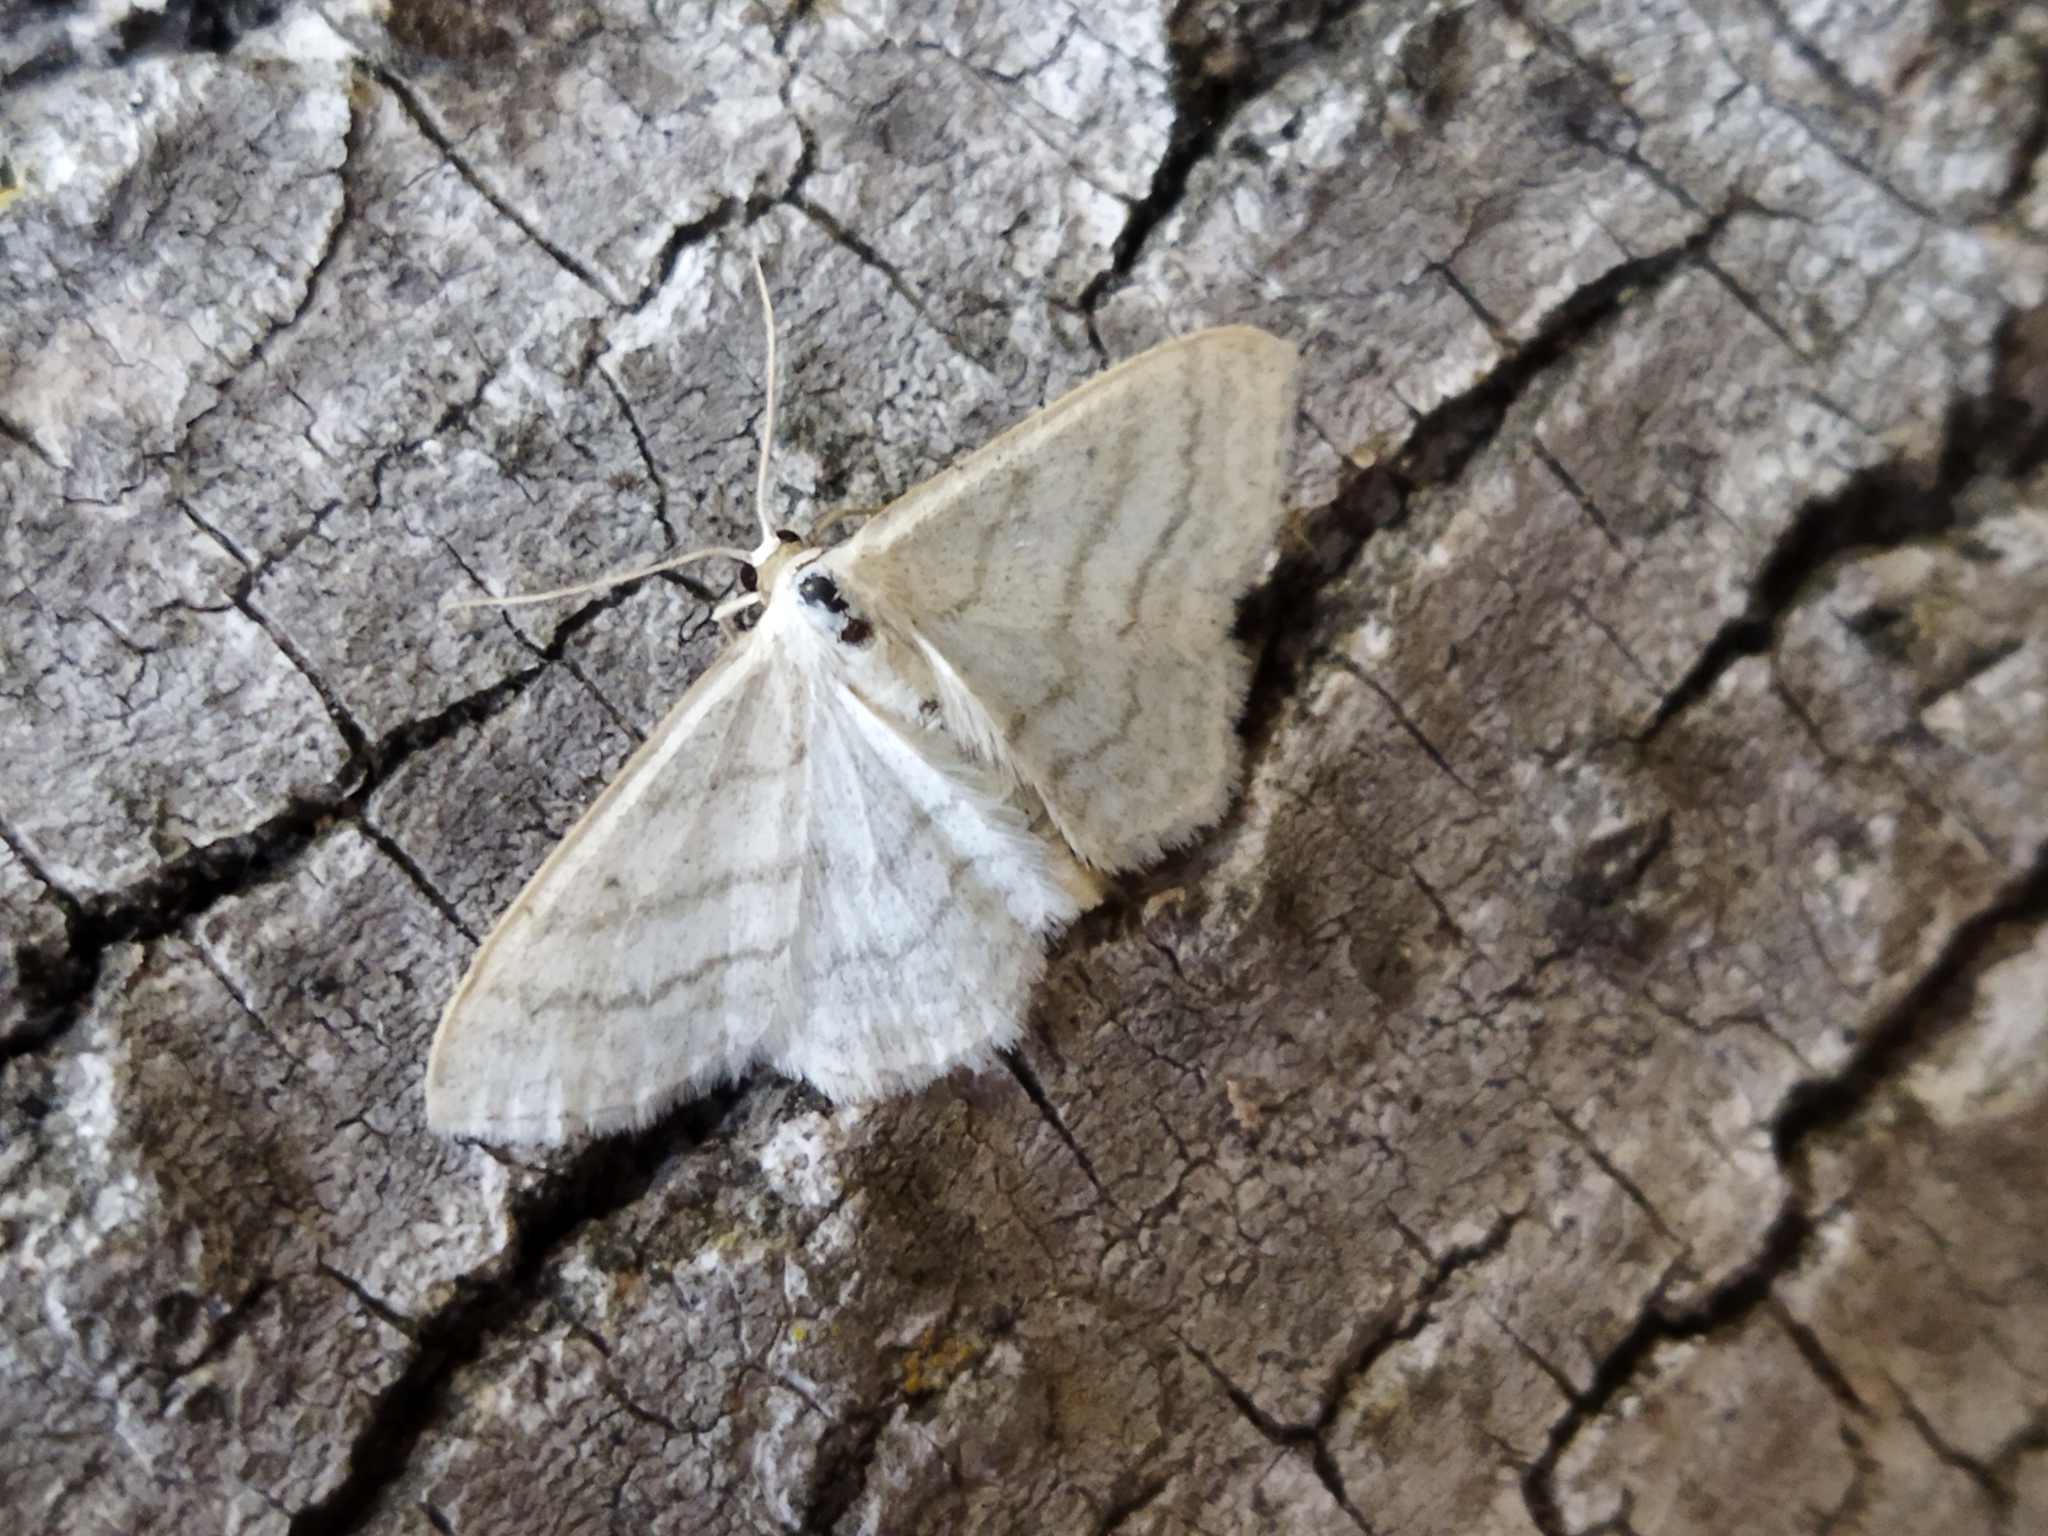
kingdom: Animalia
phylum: Arthropoda
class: Insecta
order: Lepidoptera
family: Geometridae
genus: Idaea
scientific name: Idaea subsericeata
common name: Satin wave
